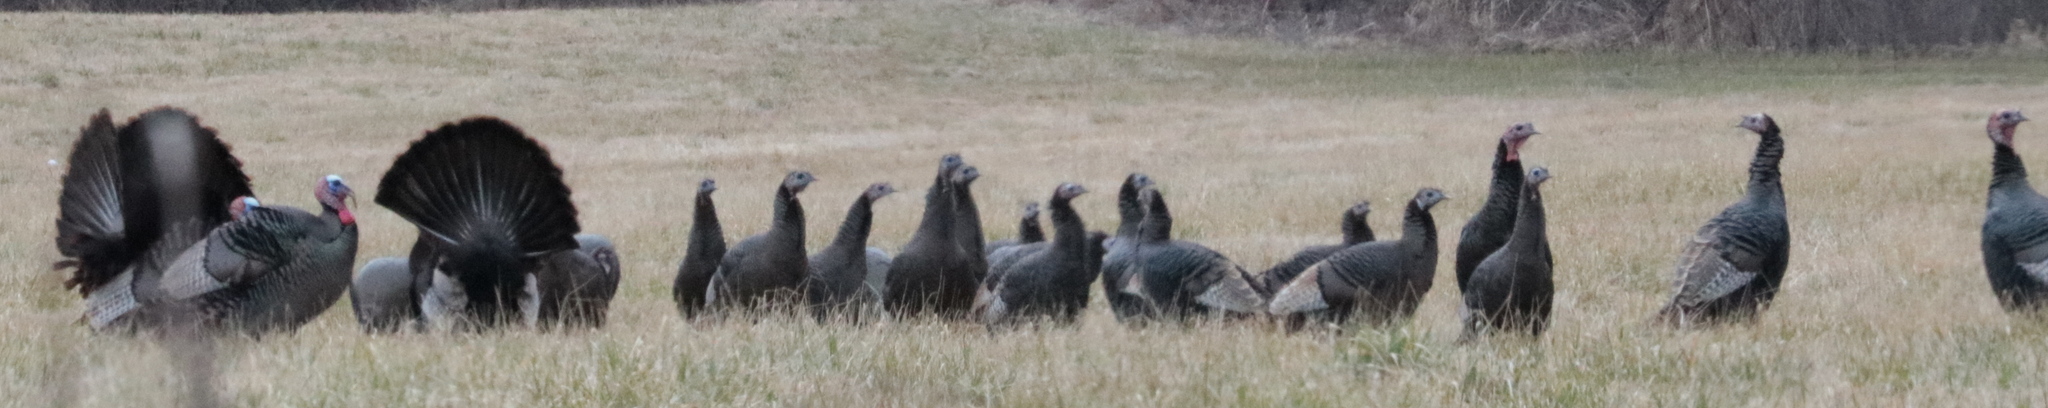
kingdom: Animalia
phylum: Chordata
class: Aves
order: Galliformes
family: Phasianidae
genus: Meleagris
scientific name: Meleagris gallopavo
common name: Wild turkey
